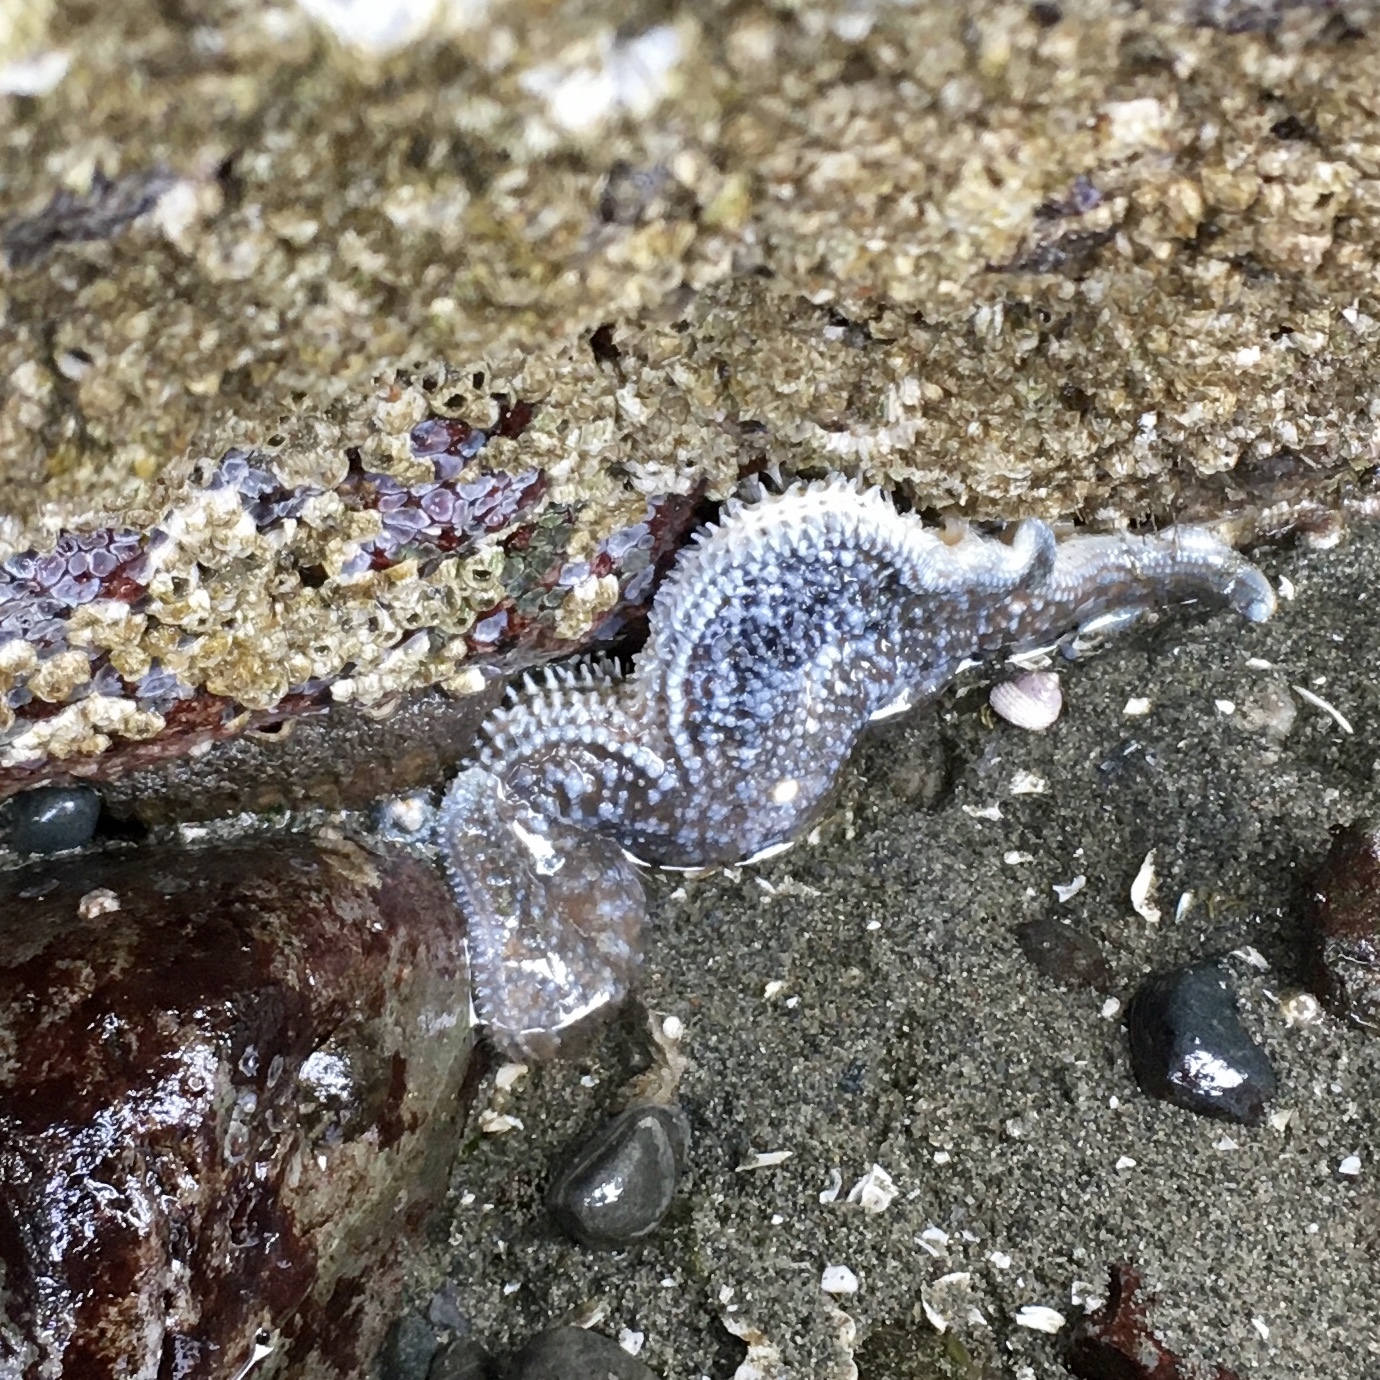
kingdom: Animalia
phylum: Echinodermata
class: Asteroidea
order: Forcipulatida
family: Asteriidae
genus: Evasterias
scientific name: Evasterias troschelii
